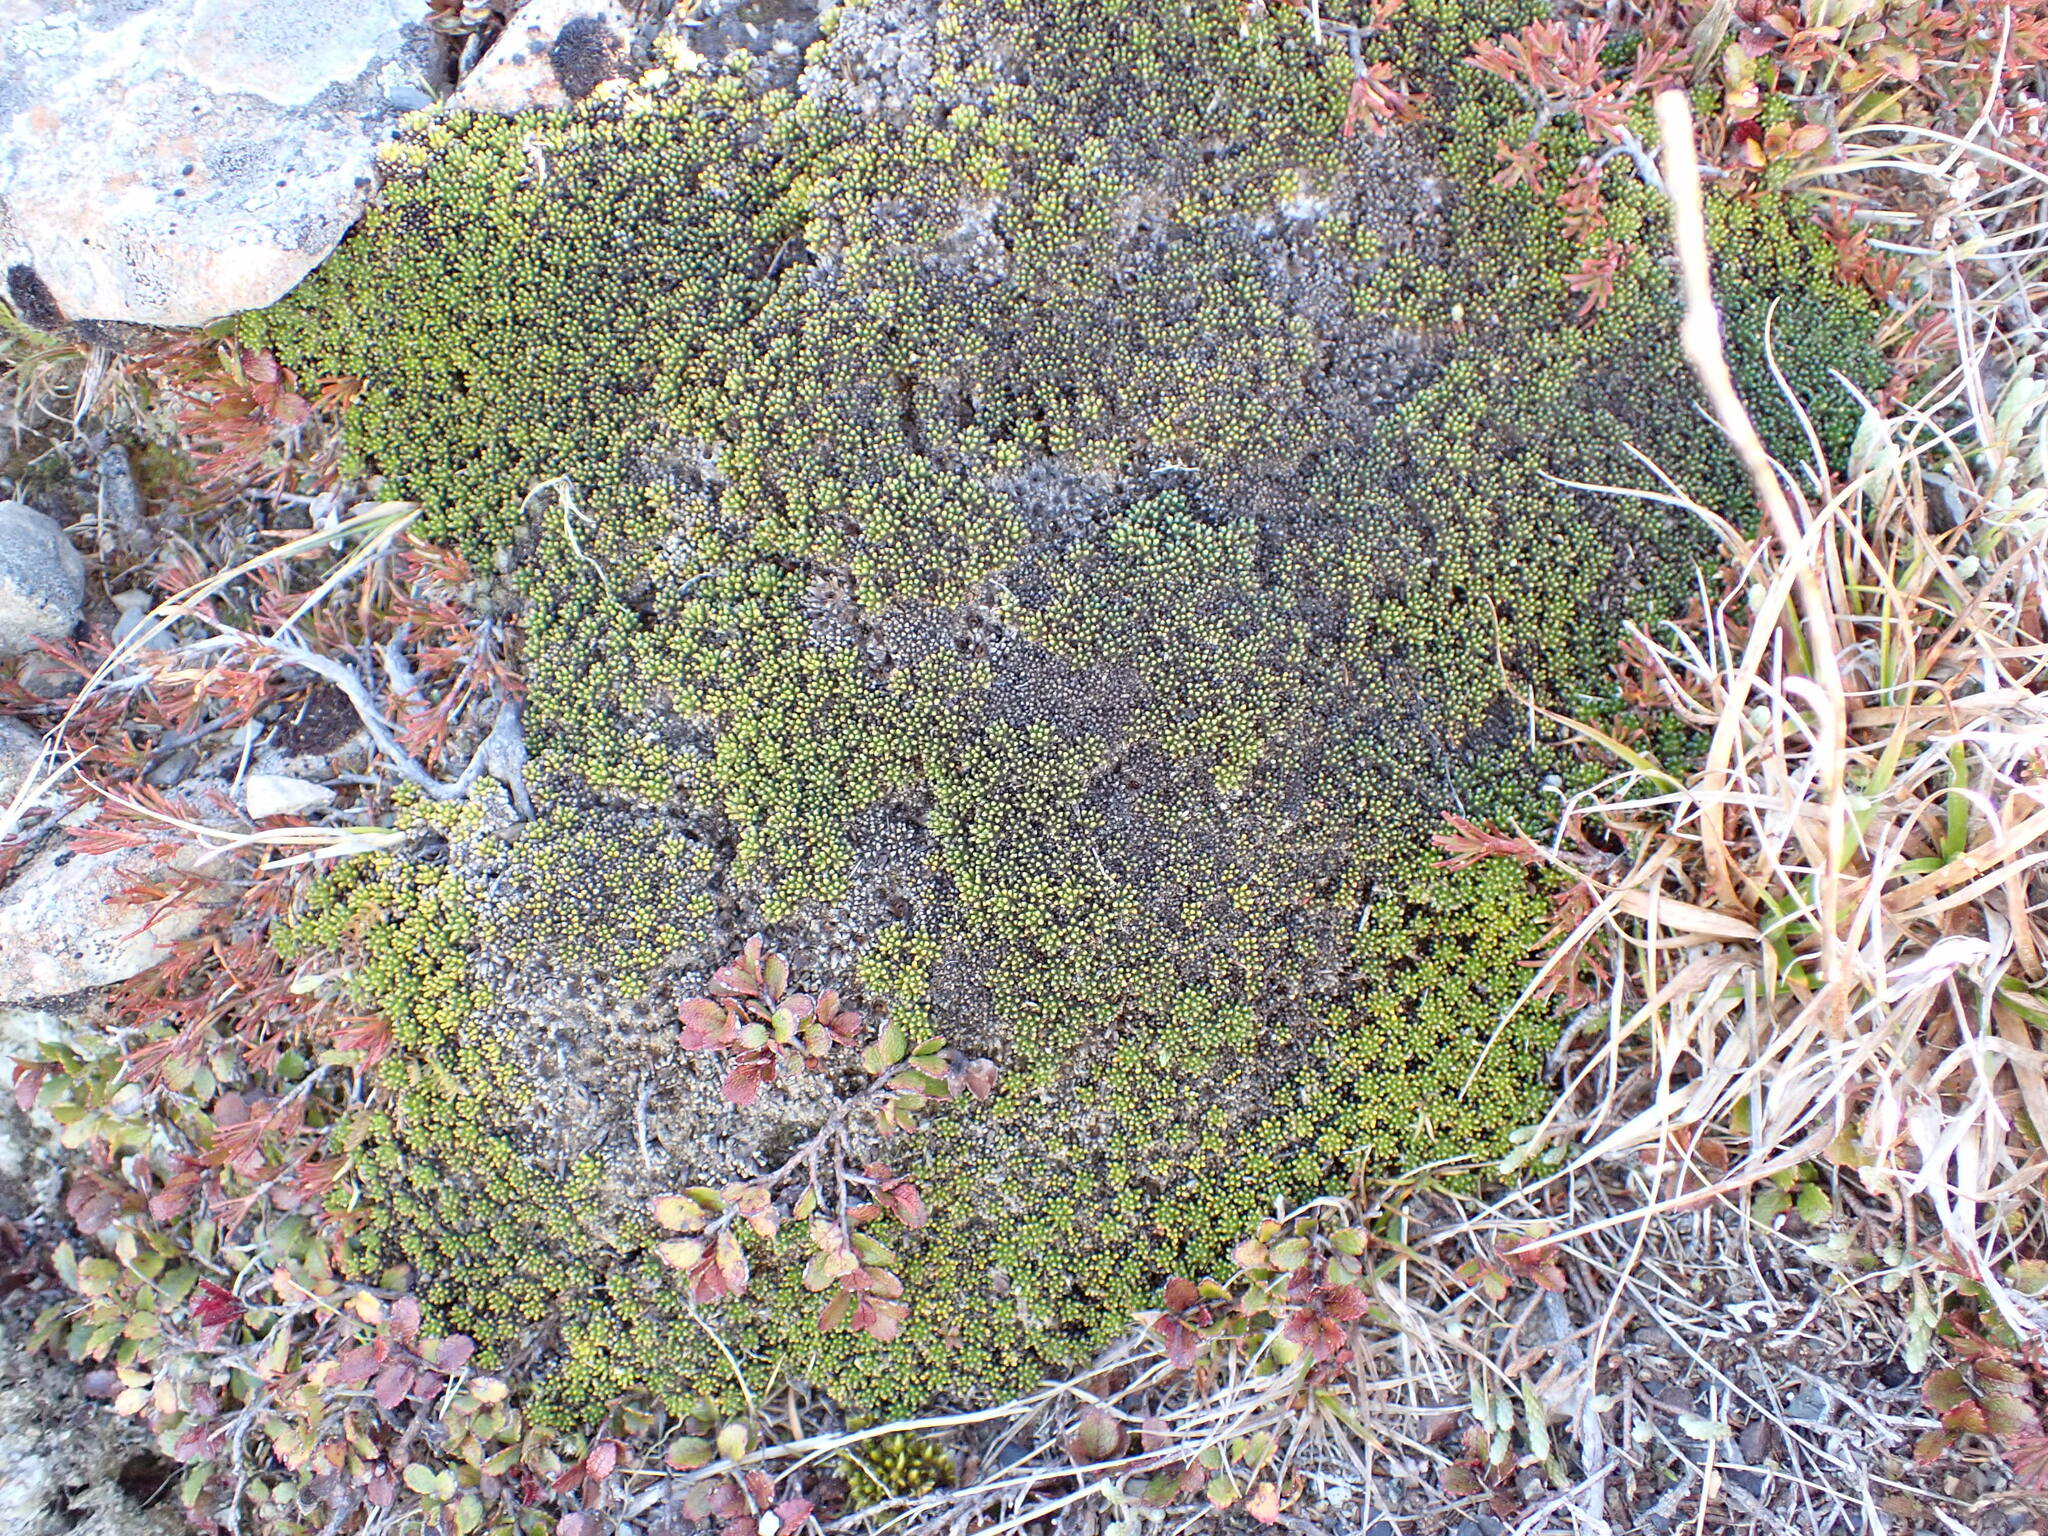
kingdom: Plantae
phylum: Tracheophyta
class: Magnoliopsida
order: Asterales
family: Stylidiaceae
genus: Phyllachne
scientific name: Phyllachne colensoi
